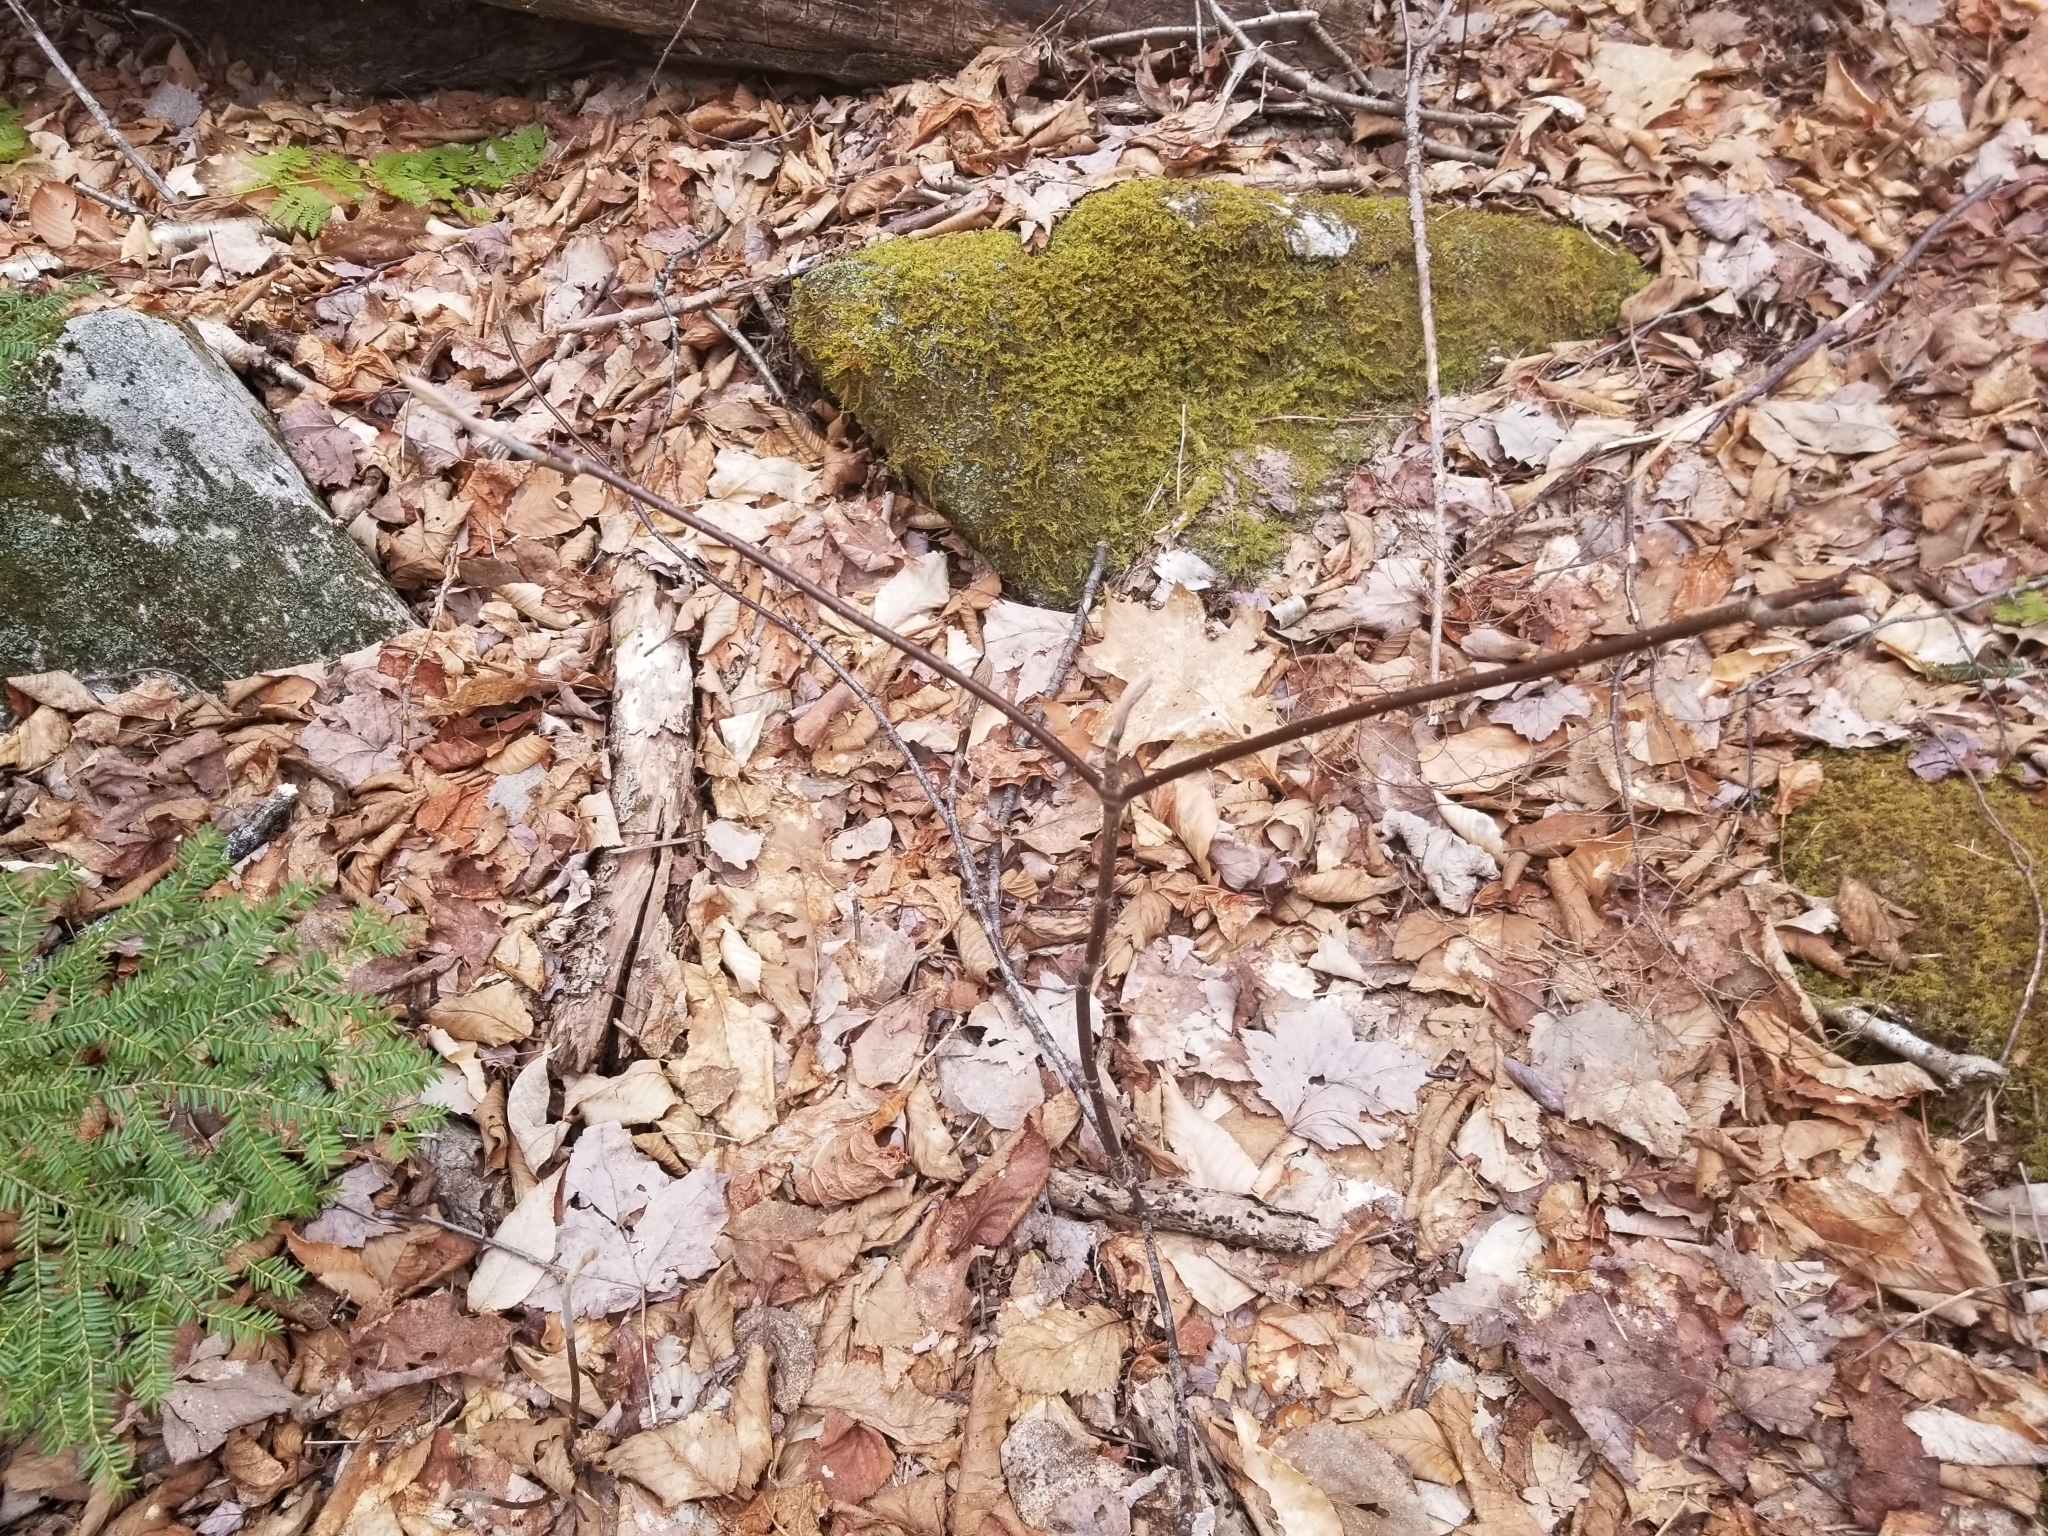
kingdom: Plantae
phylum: Tracheophyta
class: Magnoliopsida
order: Dipsacales
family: Viburnaceae
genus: Viburnum
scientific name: Viburnum lantanoides
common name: Hobblebush
